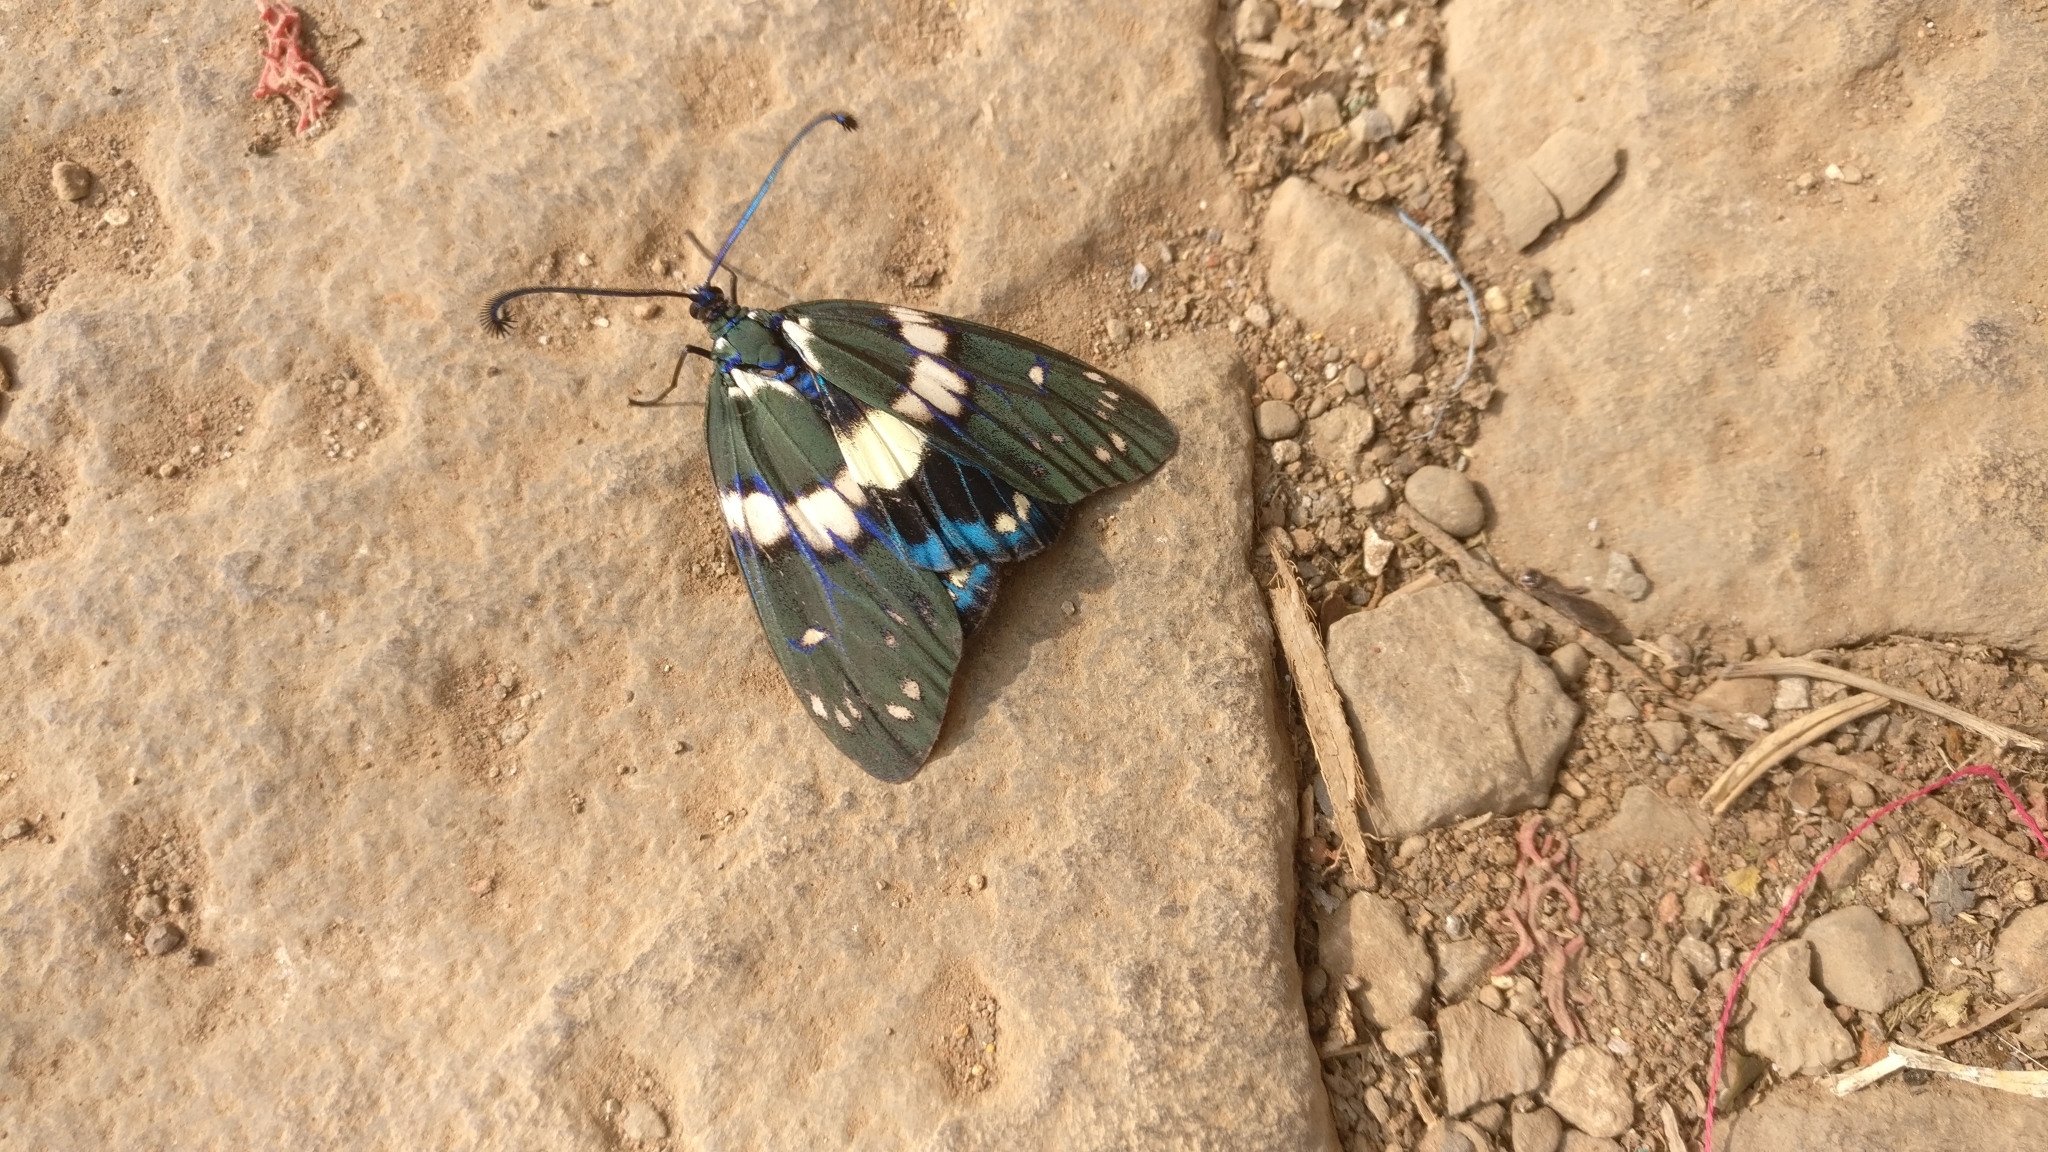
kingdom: Animalia
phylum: Arthropoda
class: Insecta
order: Lepidoptera
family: Zygaenidae
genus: Eterusia
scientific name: Eterusia aedea
